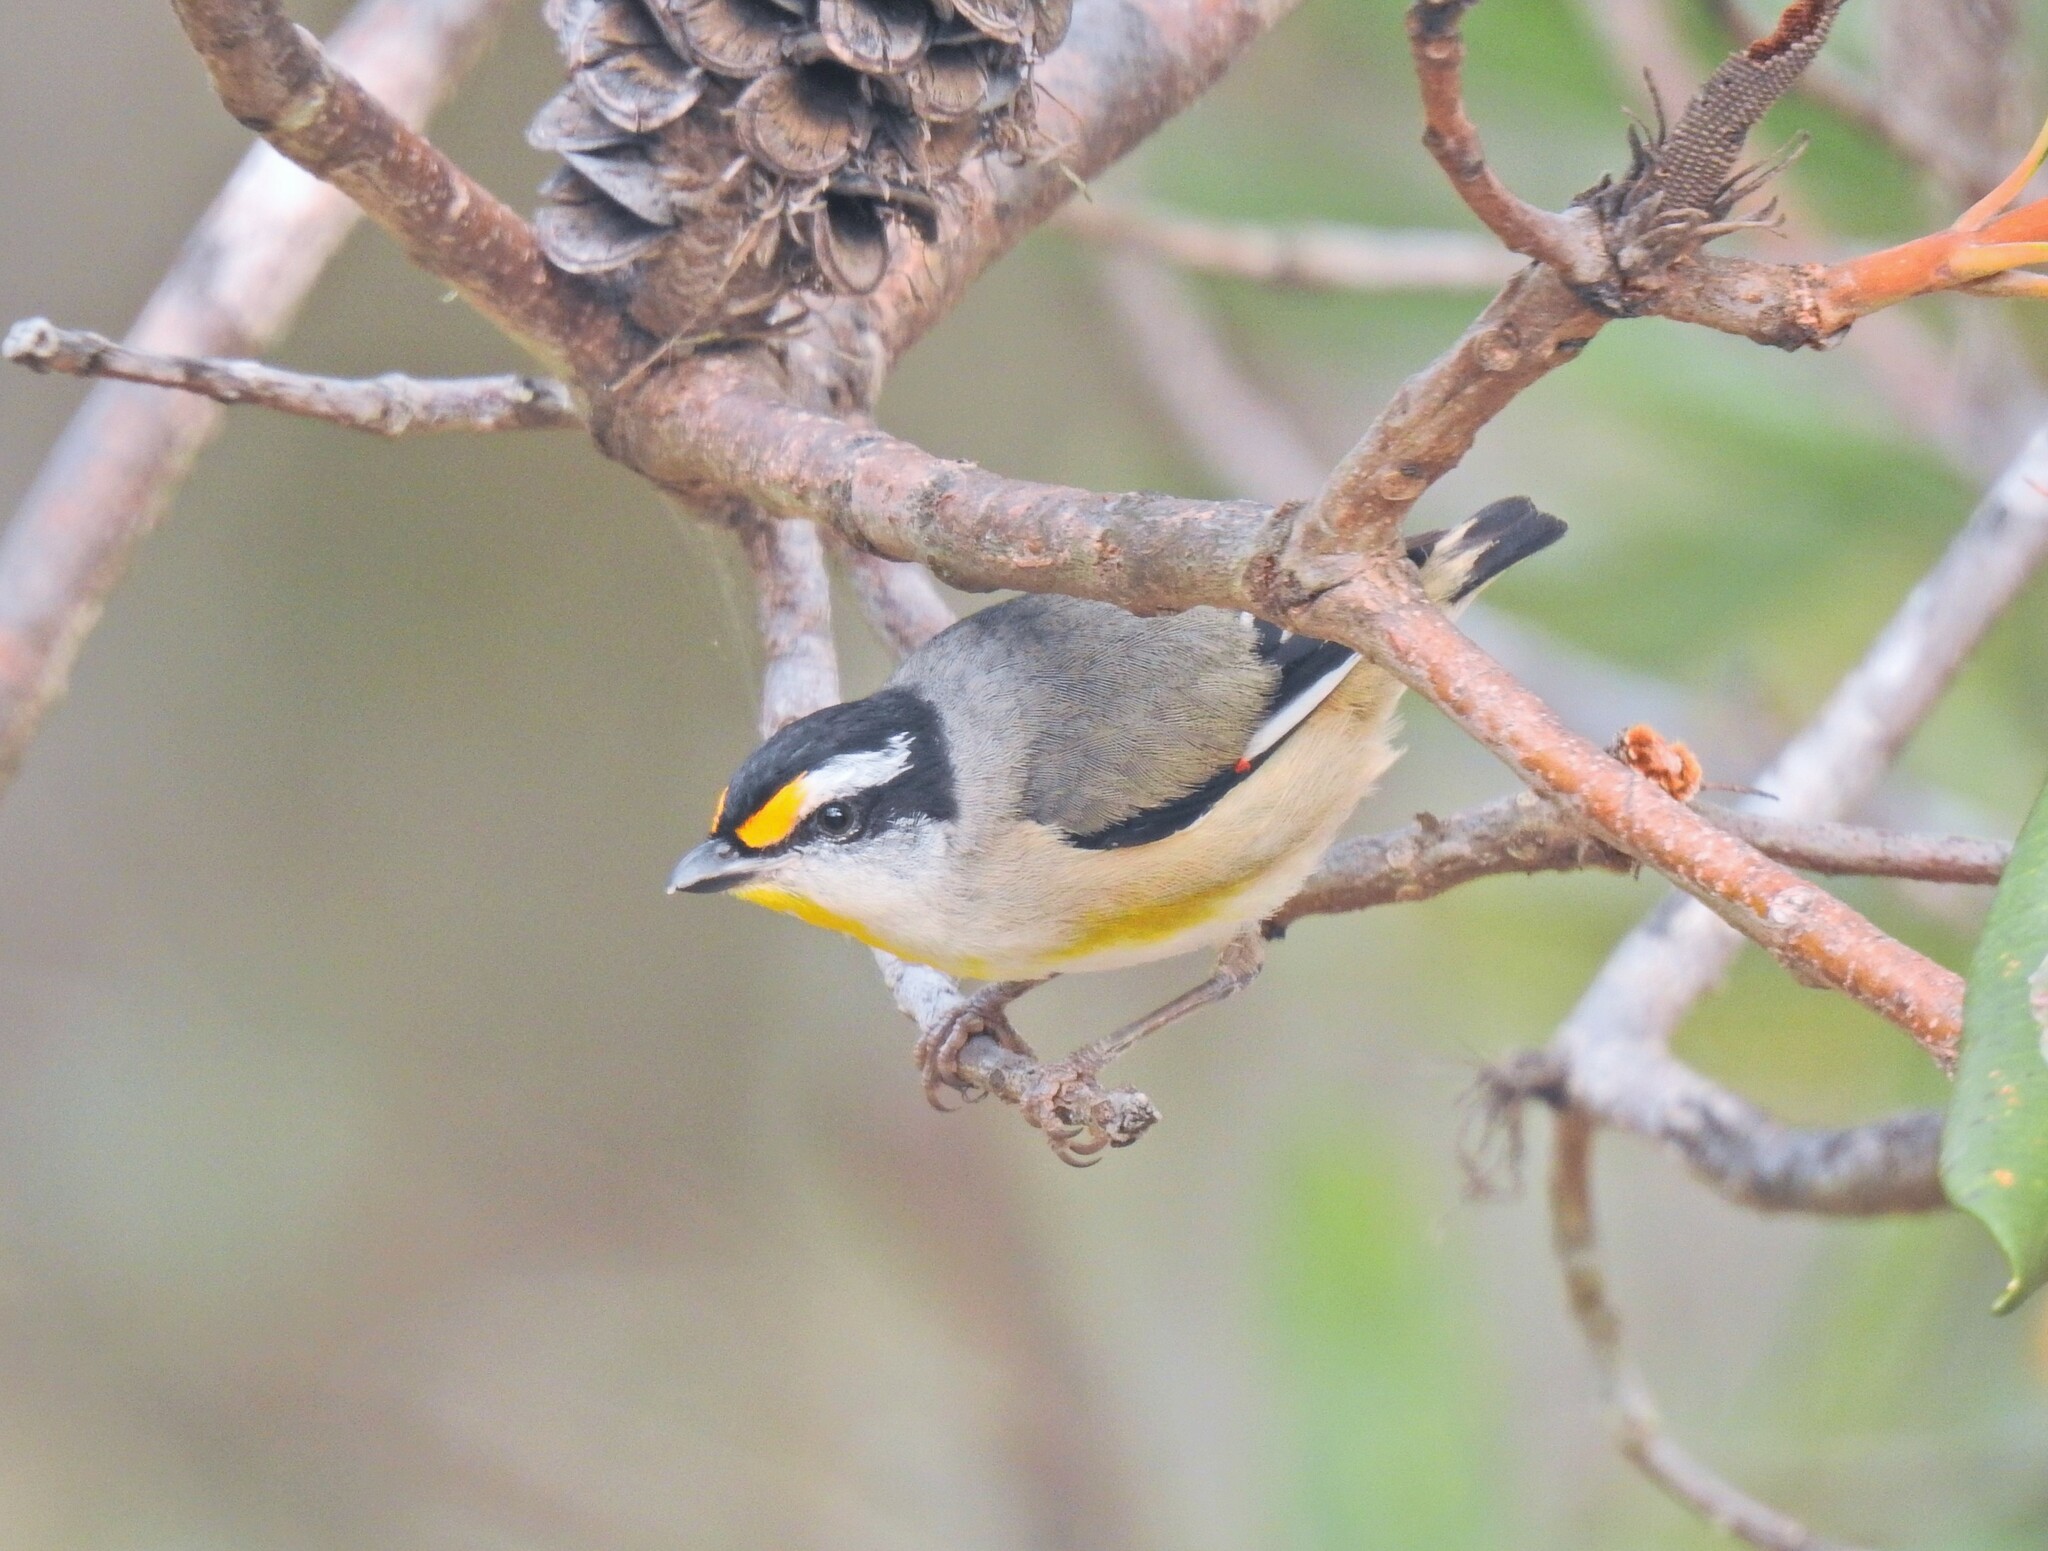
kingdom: Animalia
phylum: Chordata
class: Aves
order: Passeriformes
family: Pardalotidae
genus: Pardalotus
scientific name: Pardalotus striatus
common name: Striated pardalote
